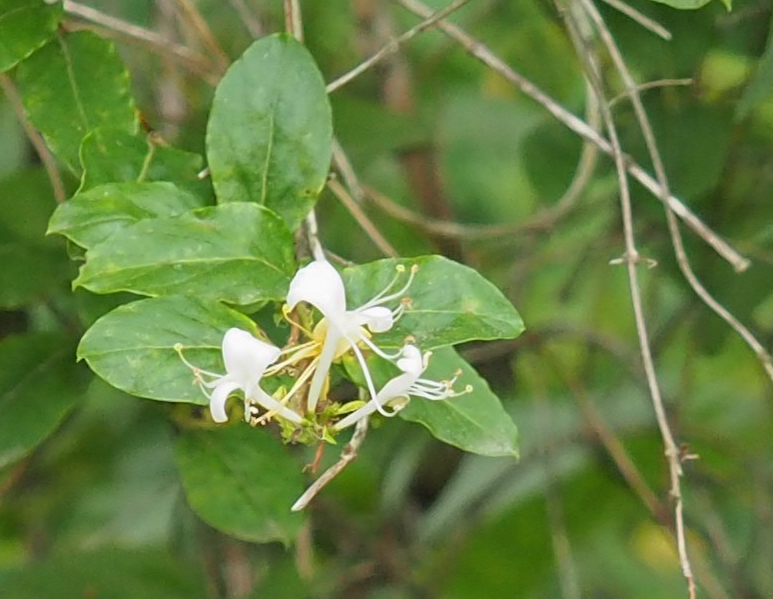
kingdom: Plantae
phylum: Tracheophyta
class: Magnoliopsida
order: Dipsacales
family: Caprifoliaceae
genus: Lonicera
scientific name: Lonicera japonica
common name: Japanese honeysuckle
